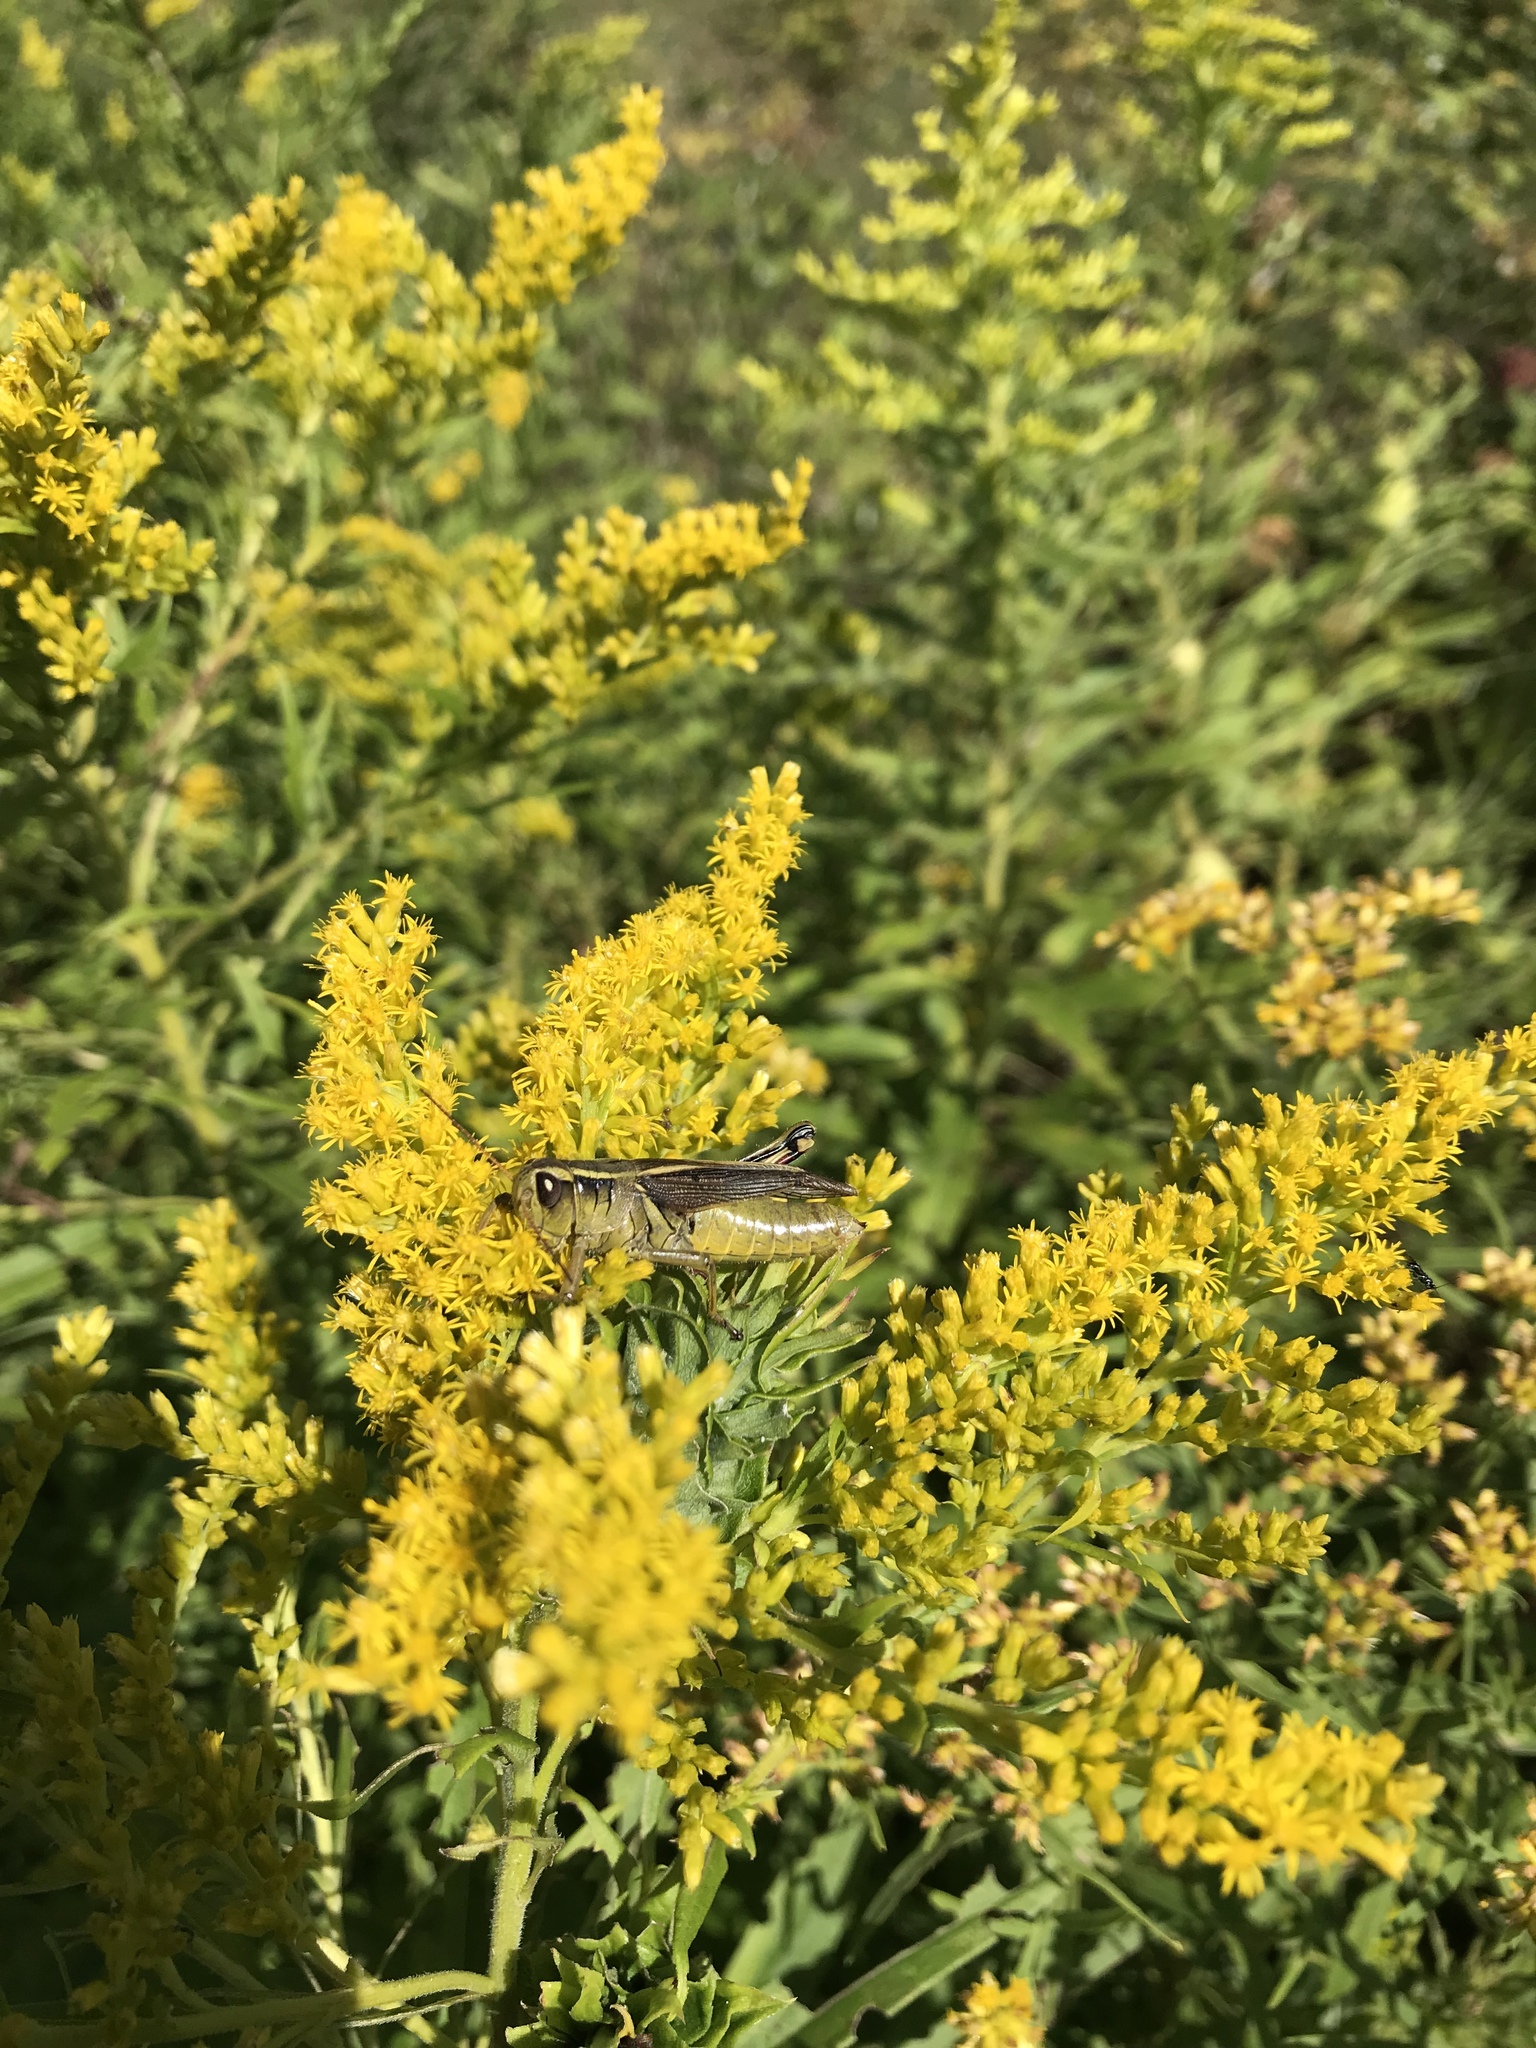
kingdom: Animalia
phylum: Arthropoda
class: Insecta
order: Orthoptera
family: Acrididae
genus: Melanoplus
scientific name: Melanoplus bivittatus
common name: Two-striped grasshopper
